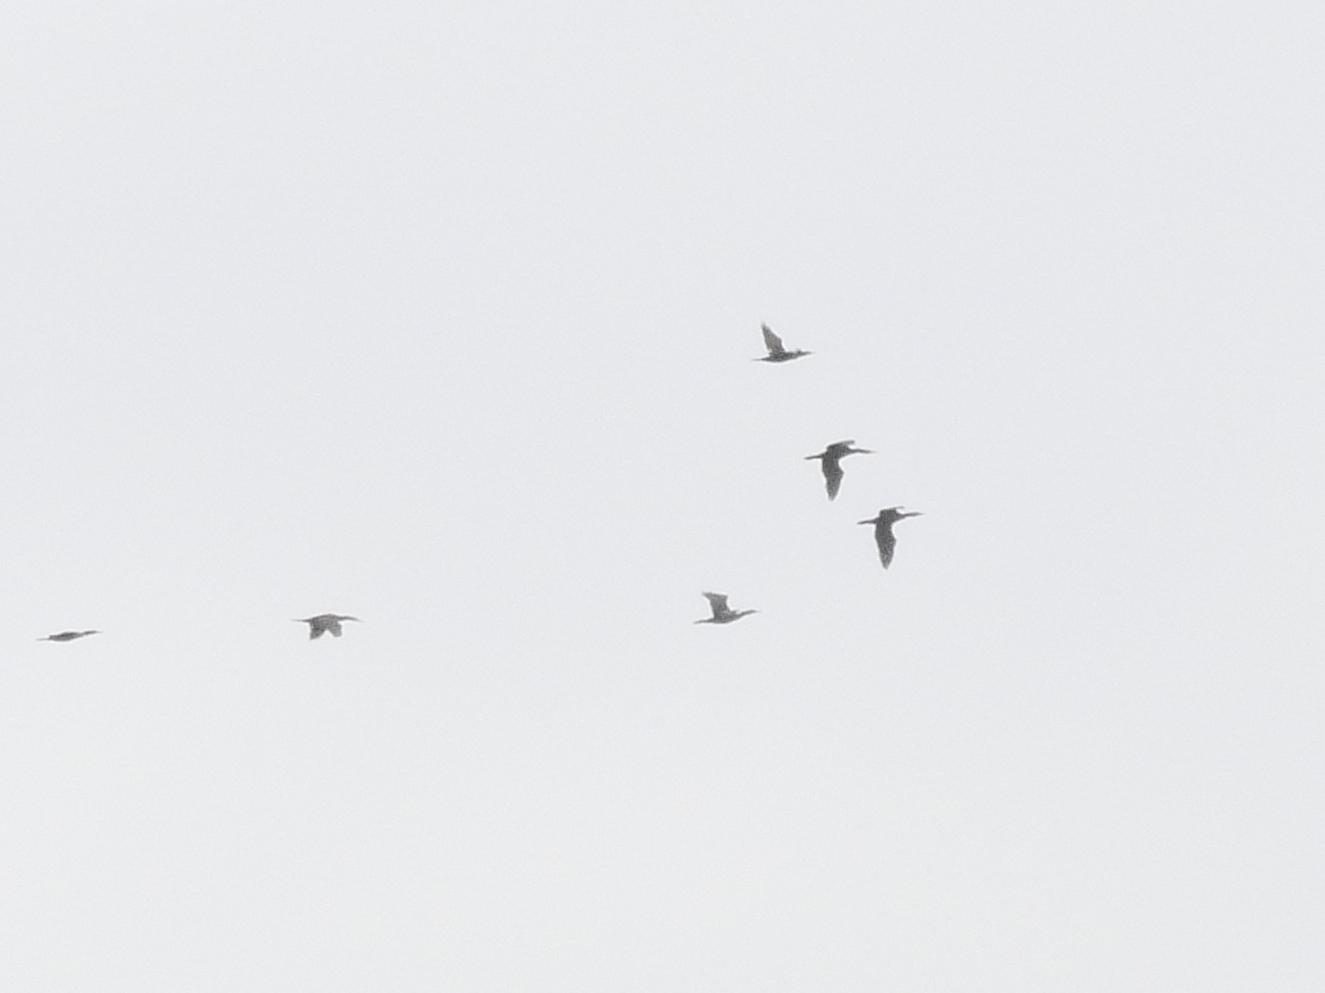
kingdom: Animalia
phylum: Chordata
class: Aves
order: Suliformes
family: Phalacrocoracidae
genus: Phalacrocorax
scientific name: Phalacrocorax carbo
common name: Great cormorant
